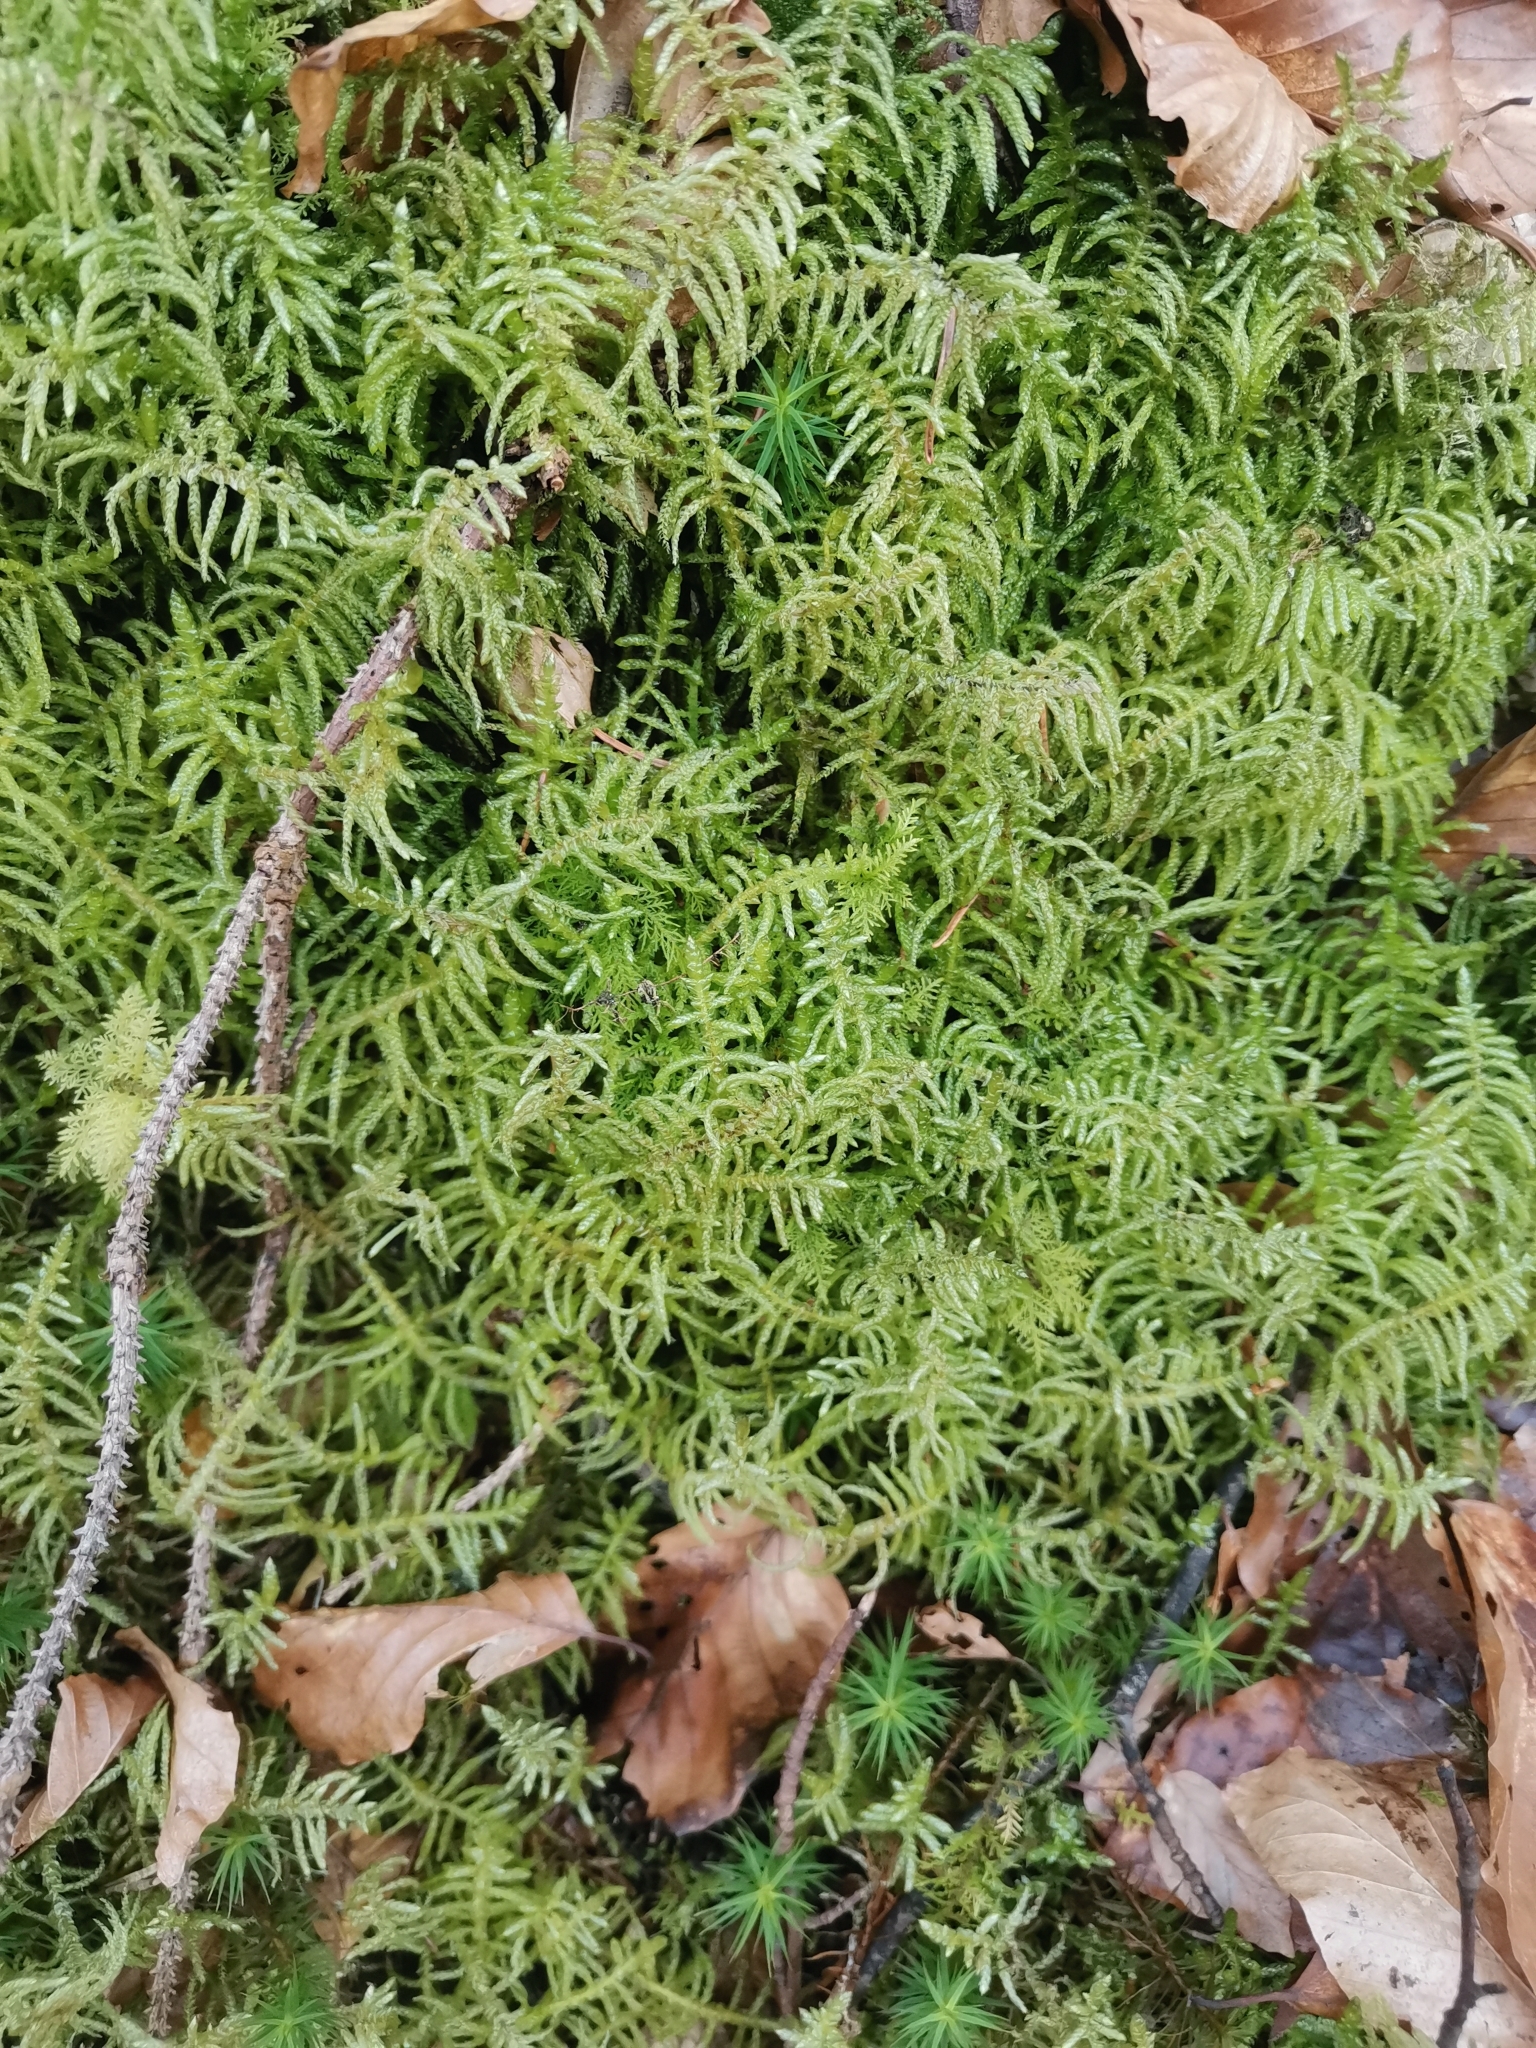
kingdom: Plantae
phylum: Bryophyta
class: Bryopsida
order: Hypnales
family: Brachytheciaceae
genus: Pseudoscleropodium
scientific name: Pseudoscleropodium purum
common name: Neat feather-moss
